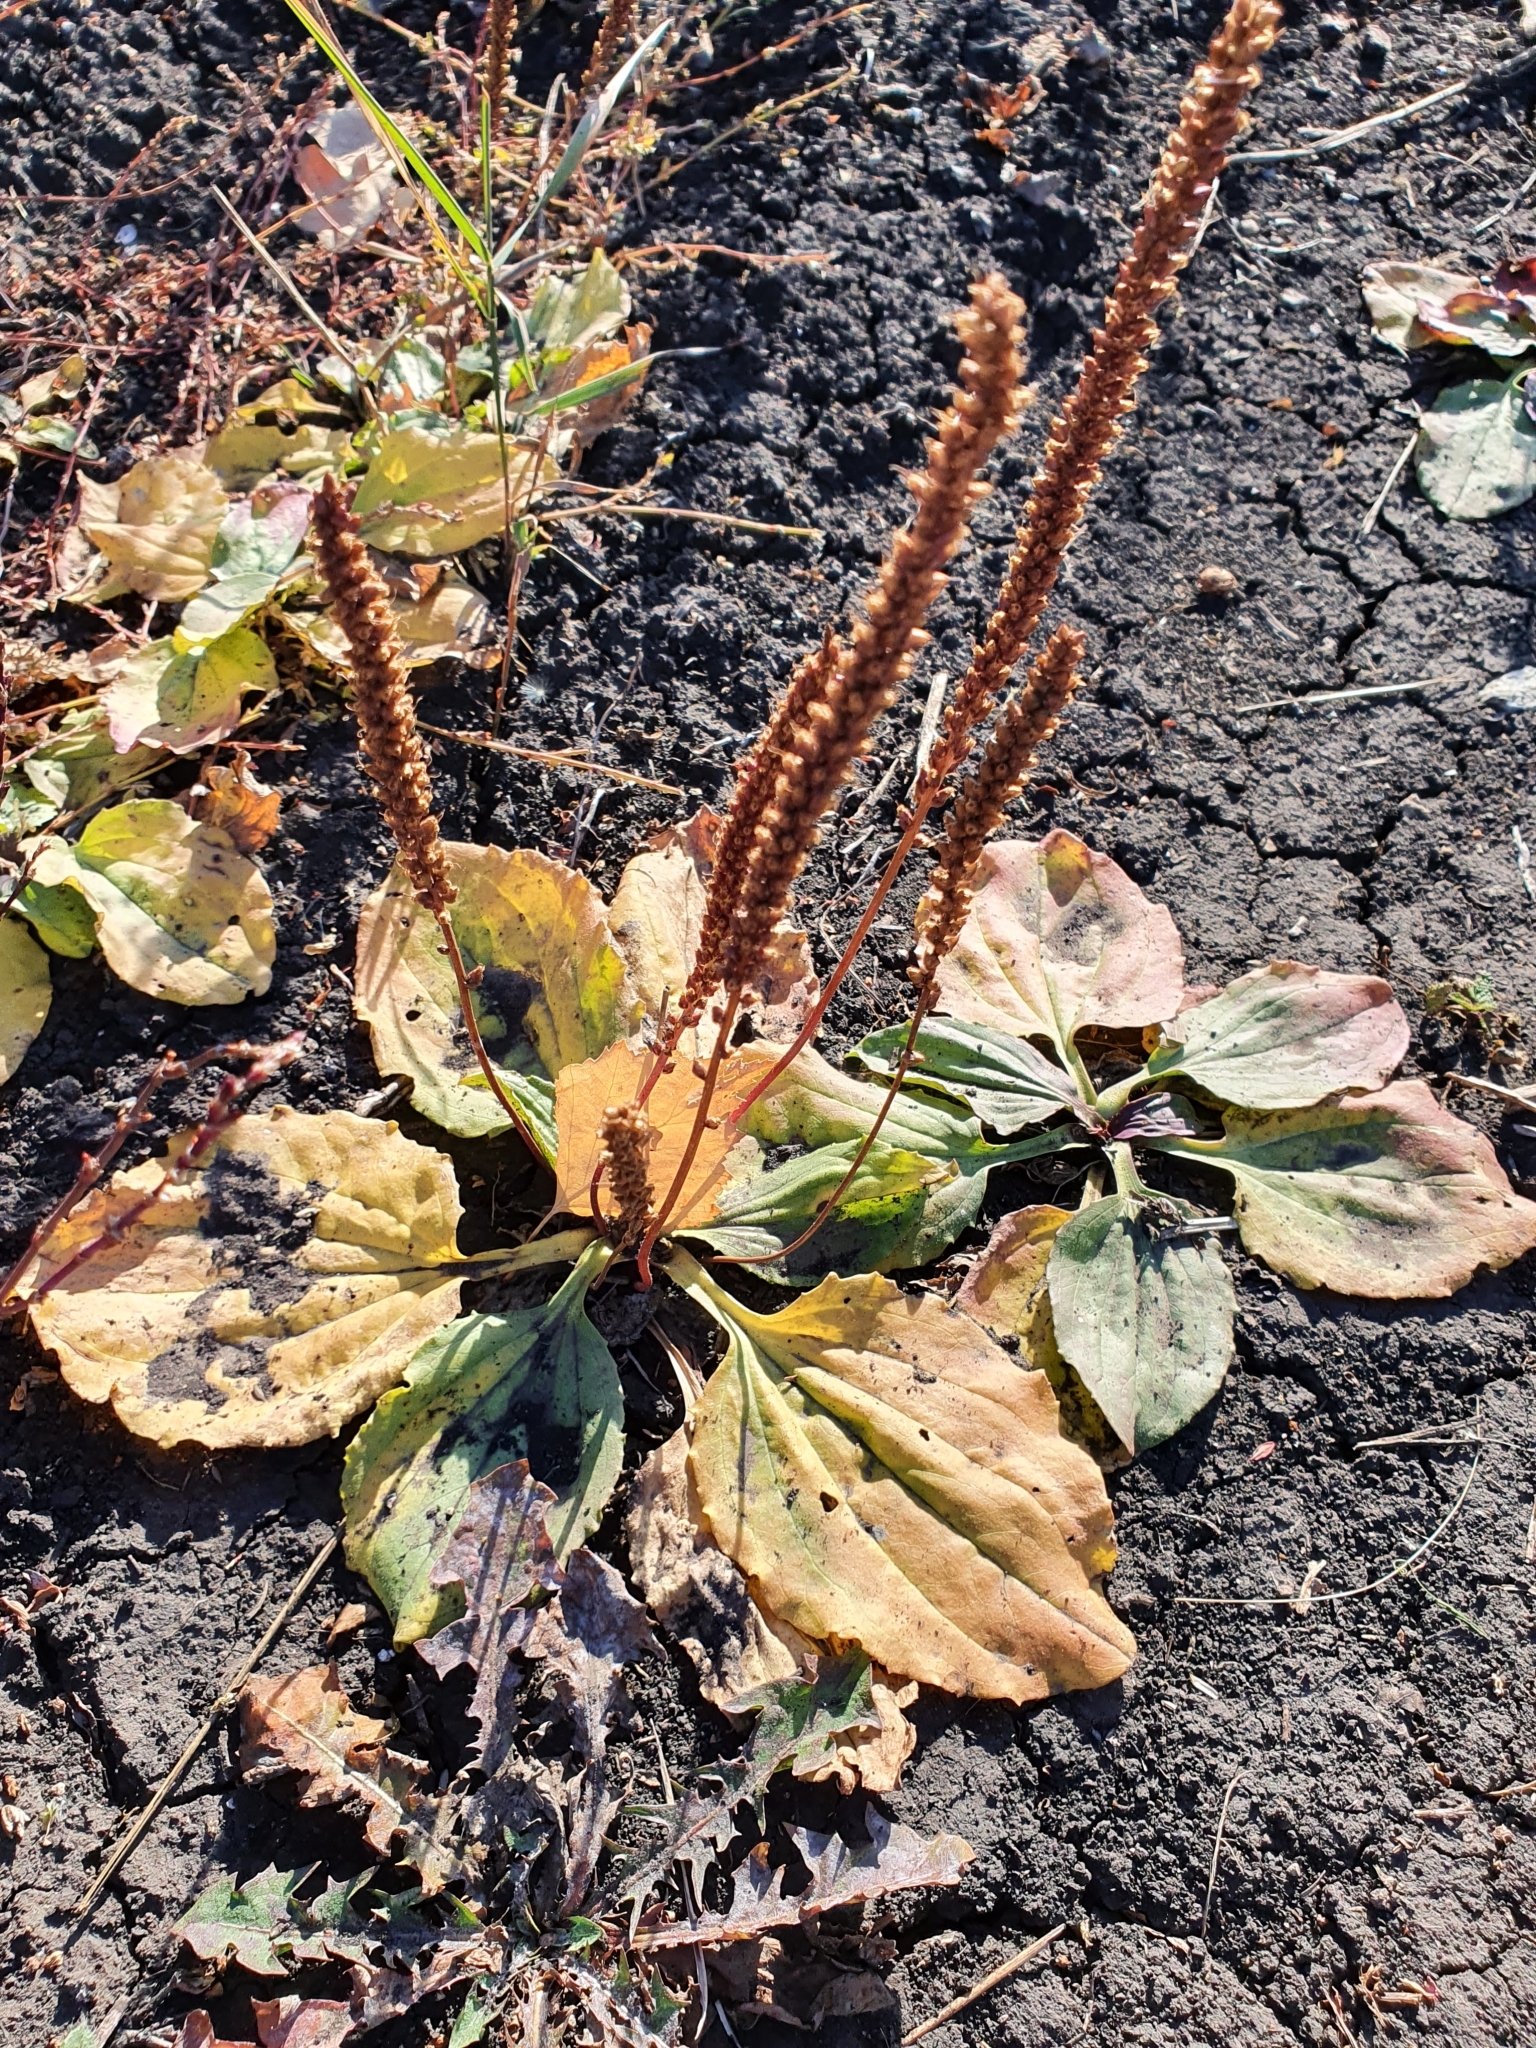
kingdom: Plantae
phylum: Tracheophyta
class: Magnoliopsida
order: Lamiales
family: Plantaginaceae
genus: Plantago
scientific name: Plantago major
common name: Common plantain
